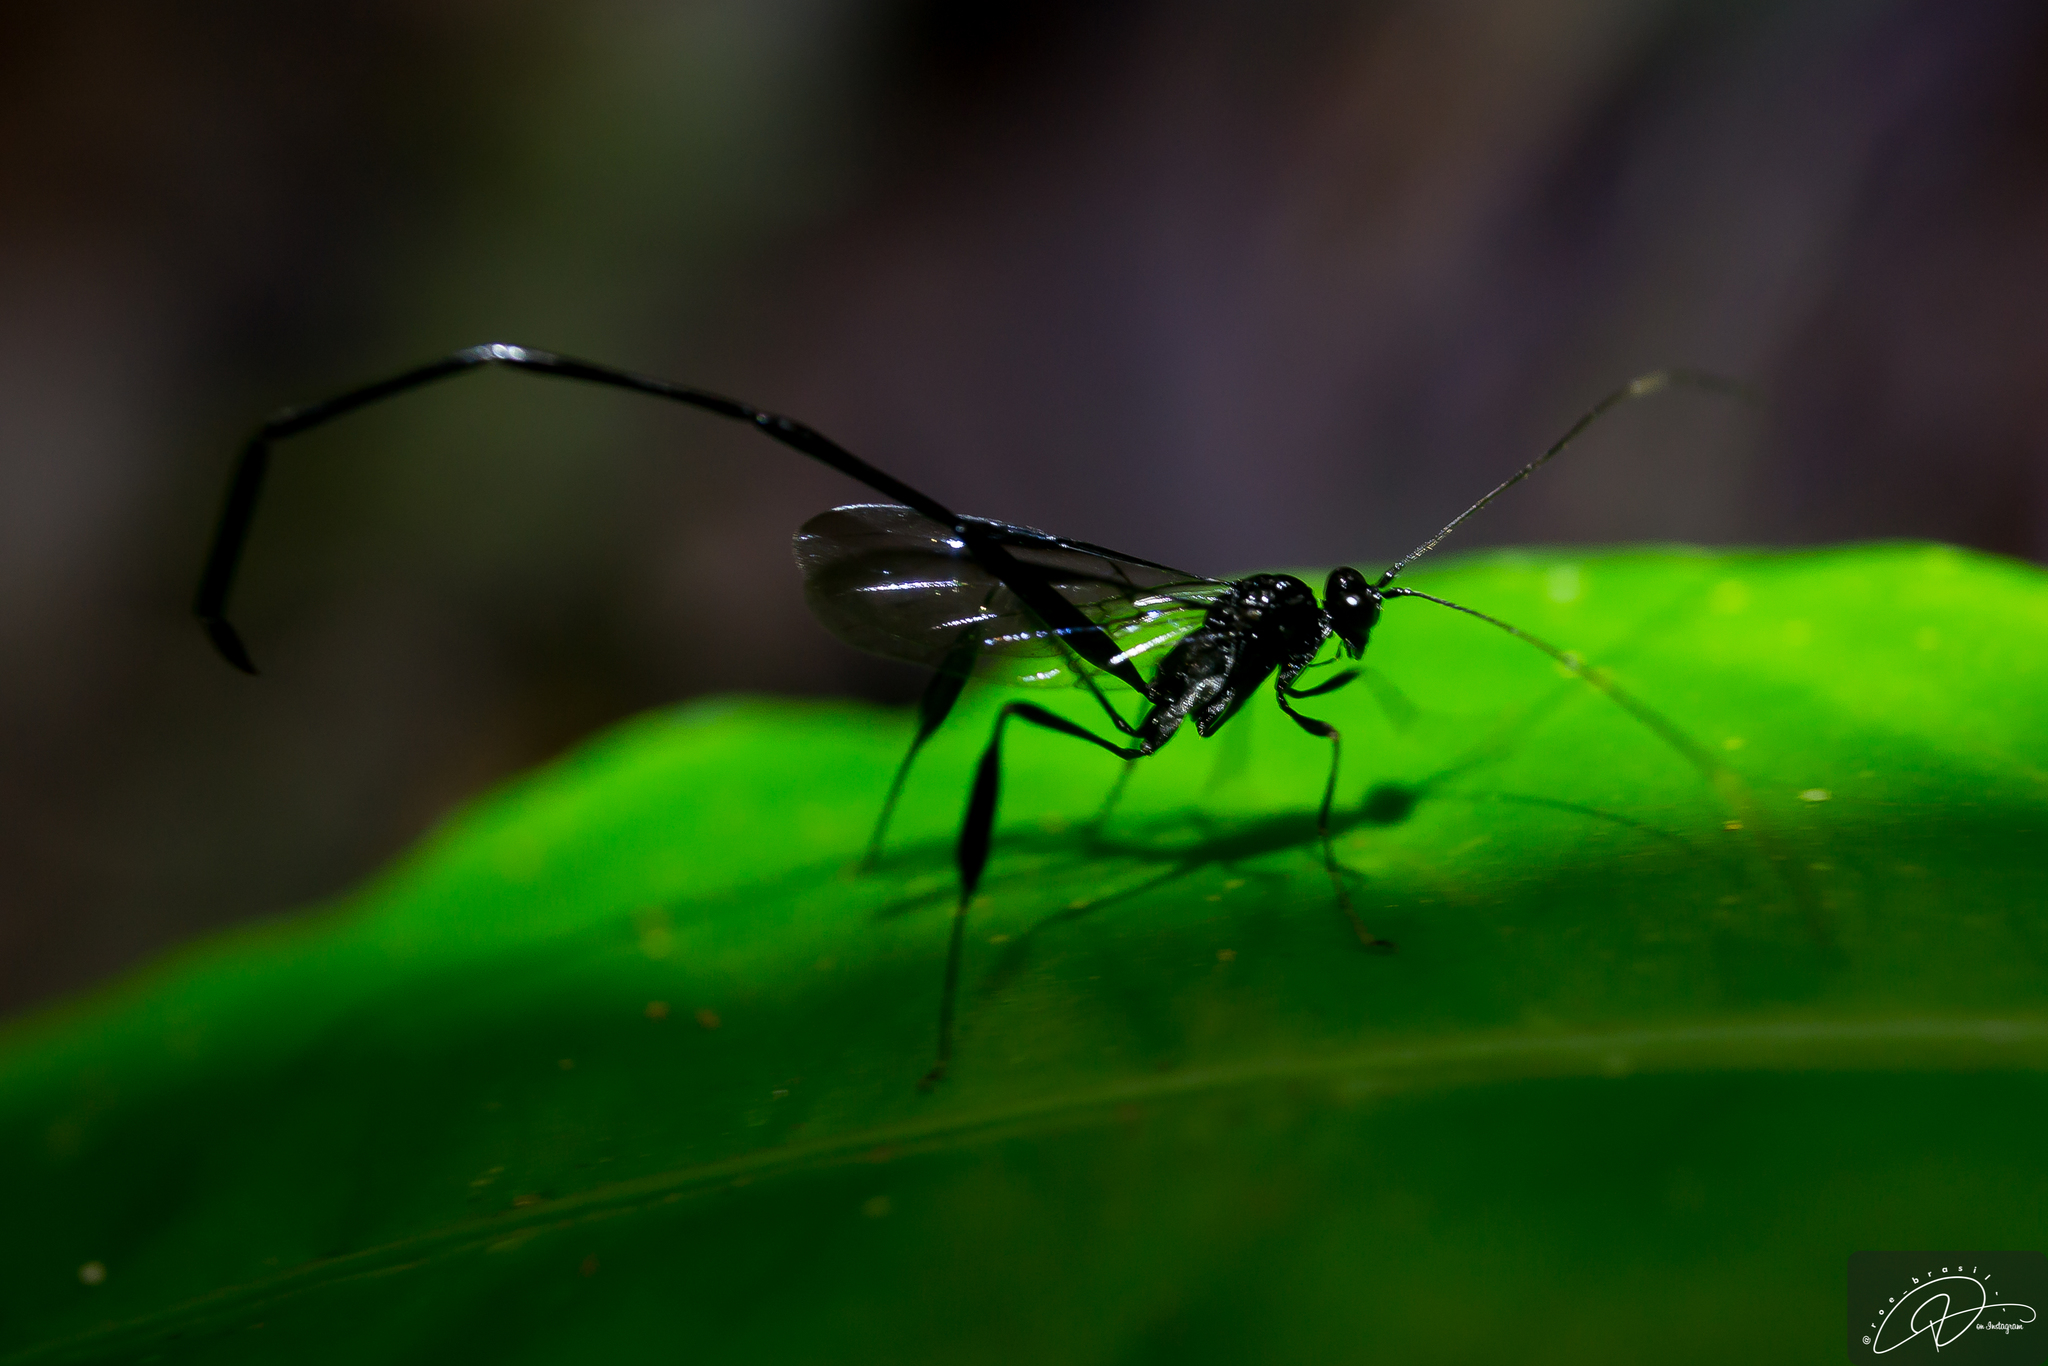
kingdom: Animalia
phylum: Arthropoda
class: Insecta
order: Hymenoptera
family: Pelecinidae
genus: Pelecinus
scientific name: Pelecinus polyturator
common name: American pelecinid wasp
